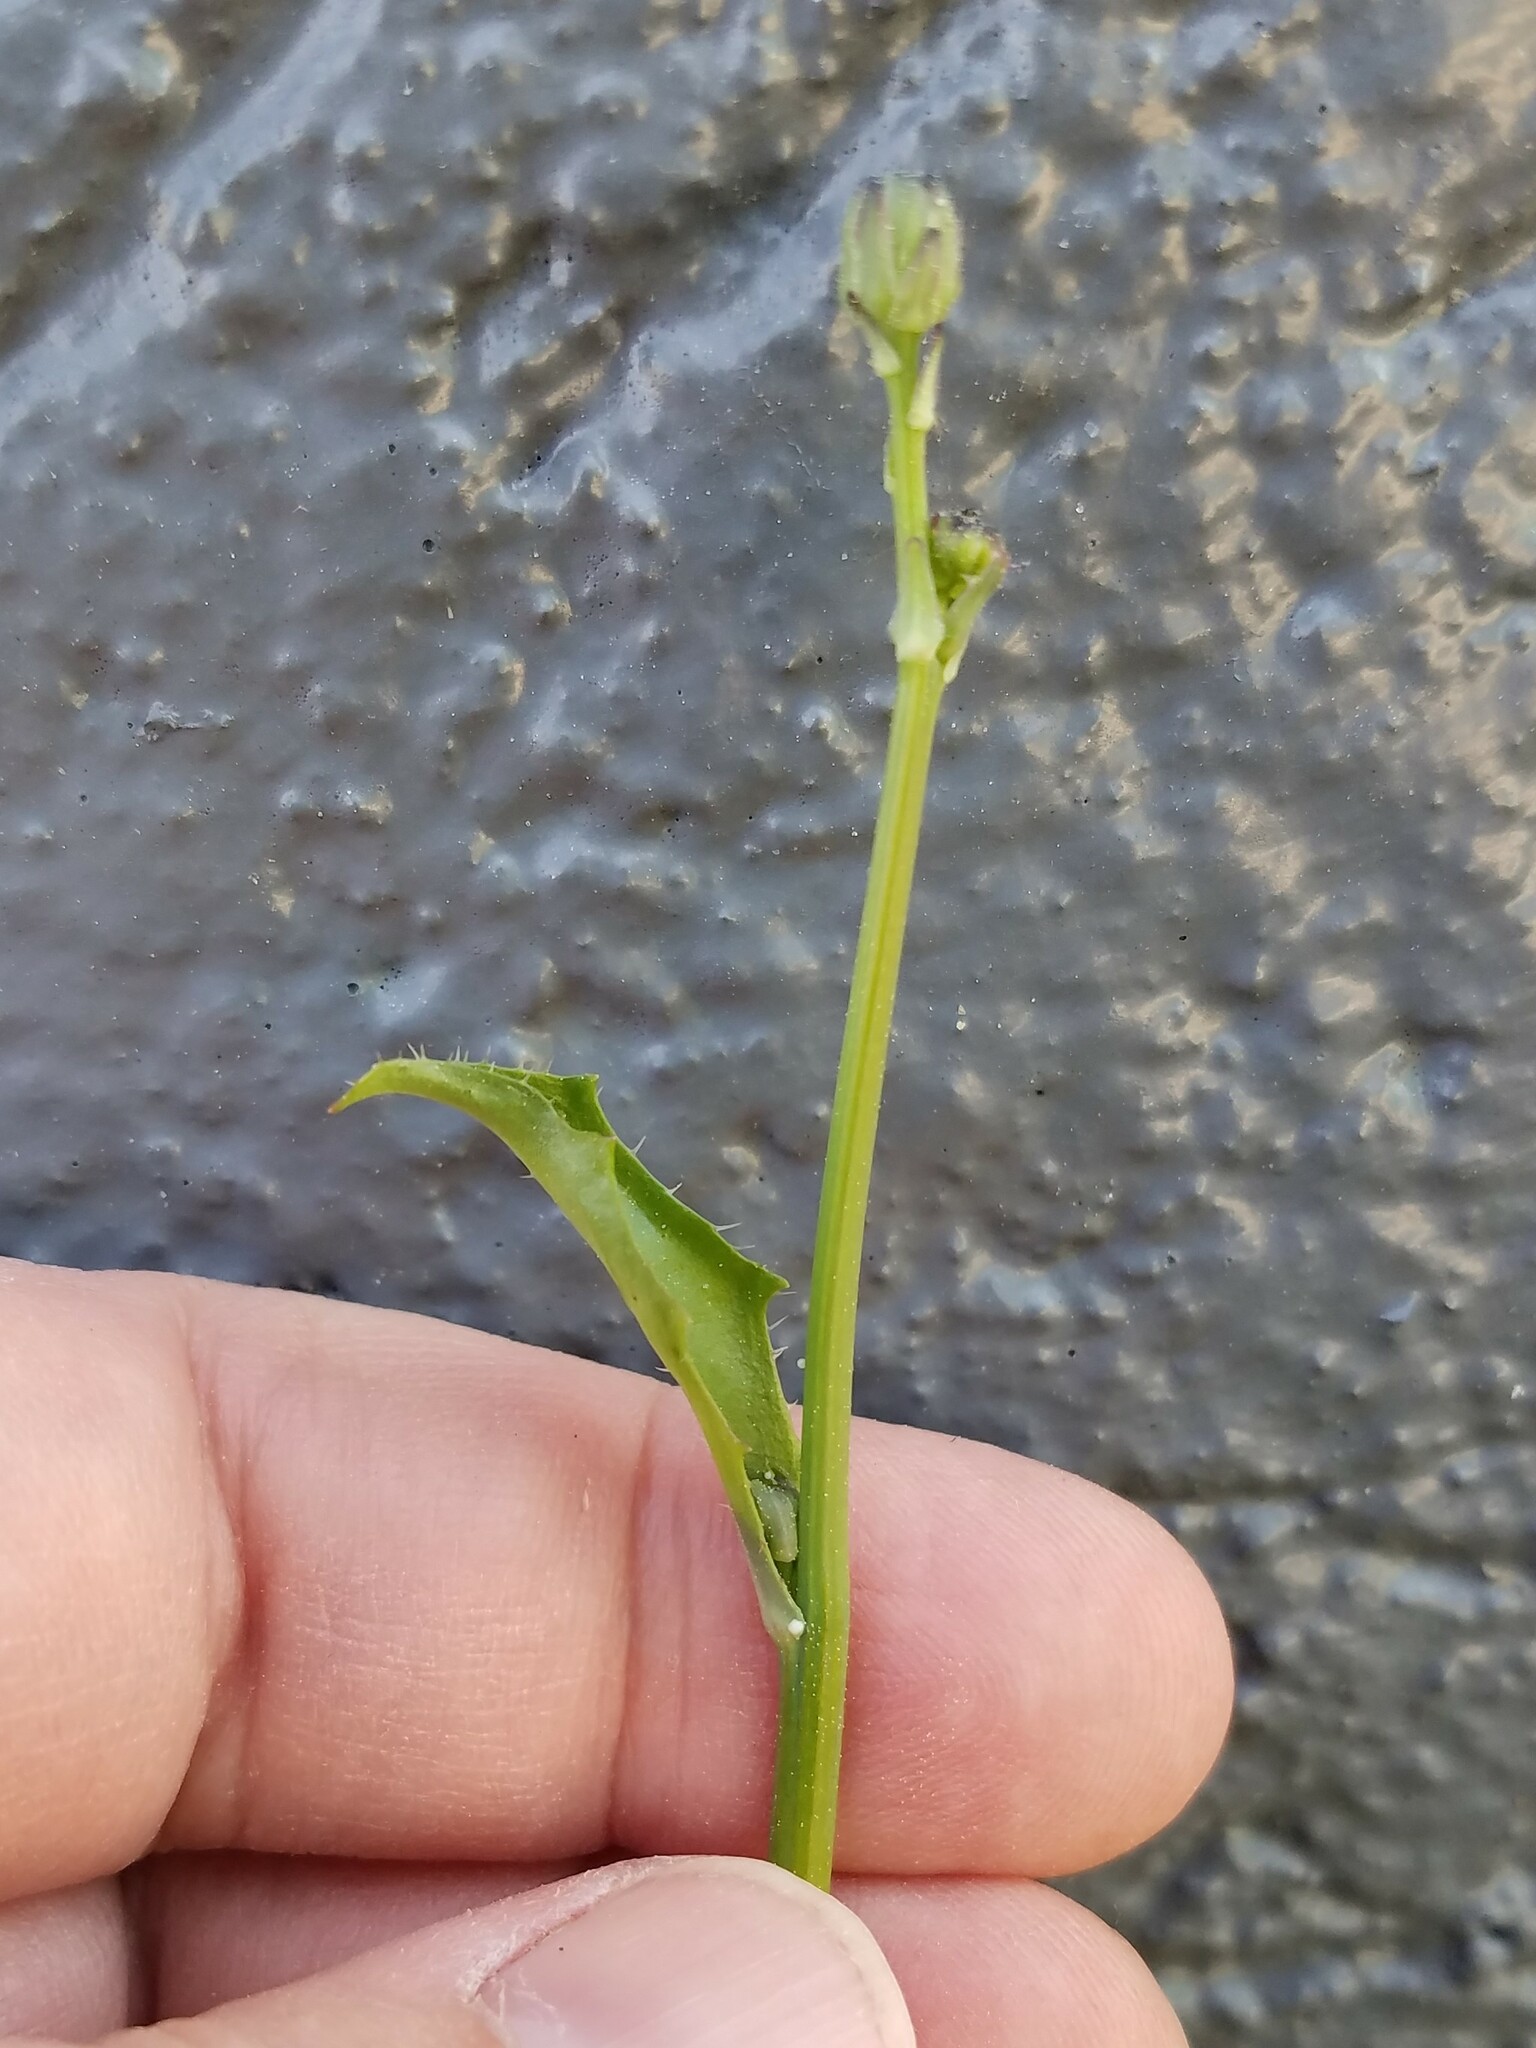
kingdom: Plantae
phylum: Tracheophyta
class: Magnoliopsida
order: Asterales
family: Asteraceae
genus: Hypochaeris
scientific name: Hypochaeris glabra
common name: Smooth catsear
